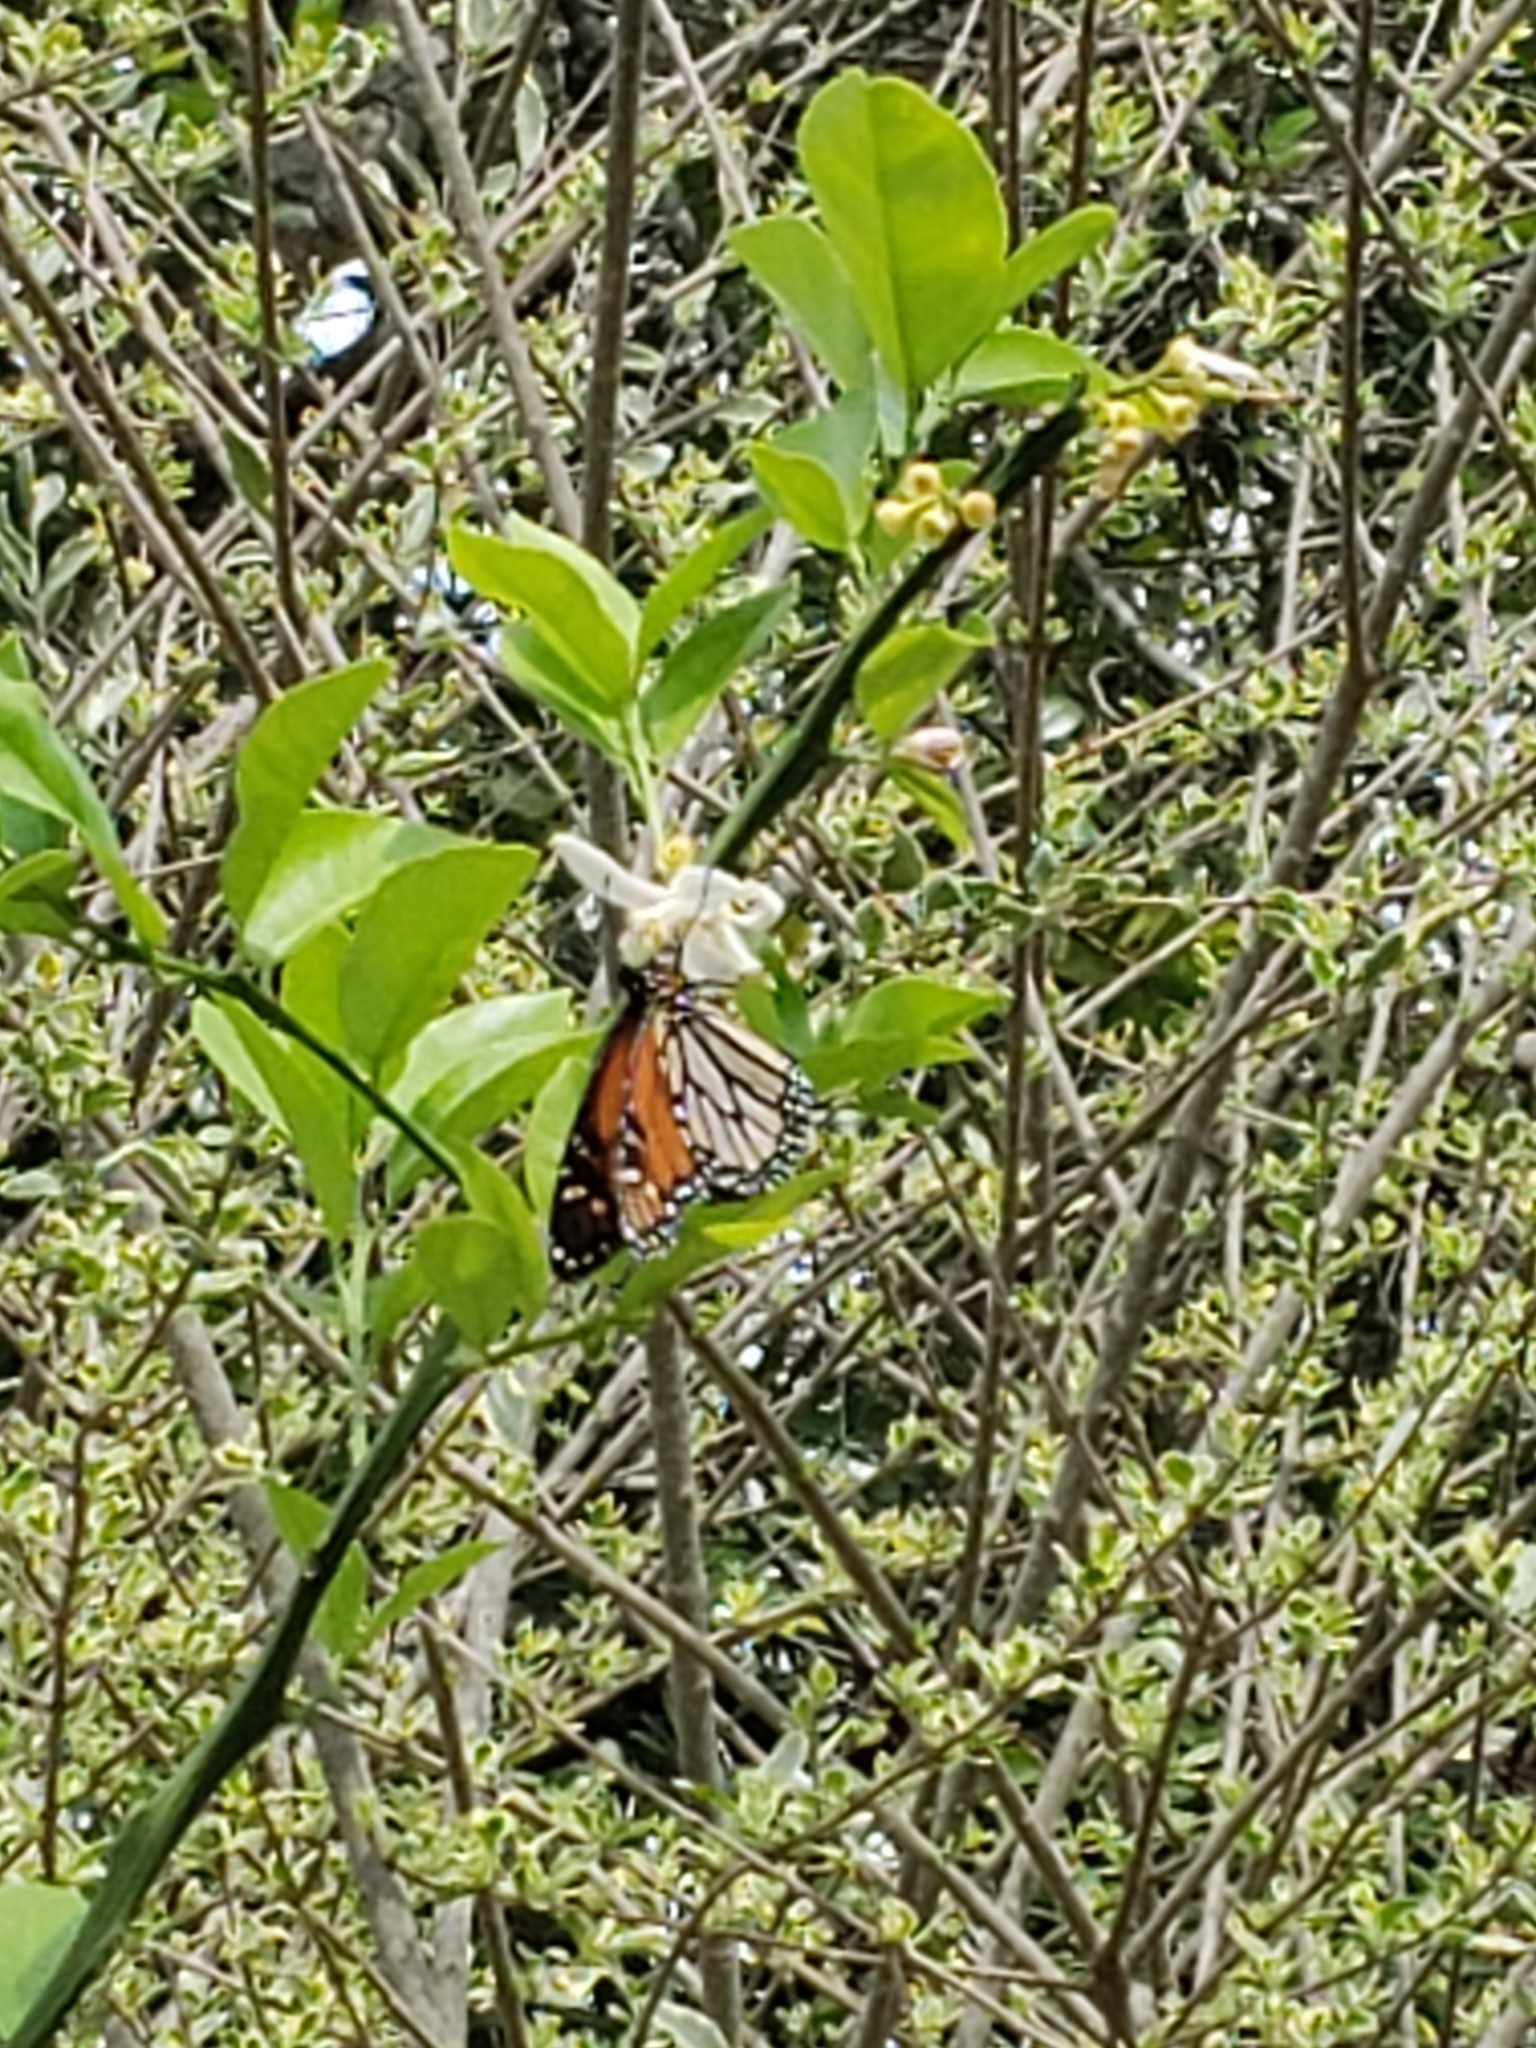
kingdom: Animalia
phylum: Arthropoda
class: Insecta
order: Lepidoptera
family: Nymphalidae
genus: Danaus
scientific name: Danaus plexippus
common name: Monarch
